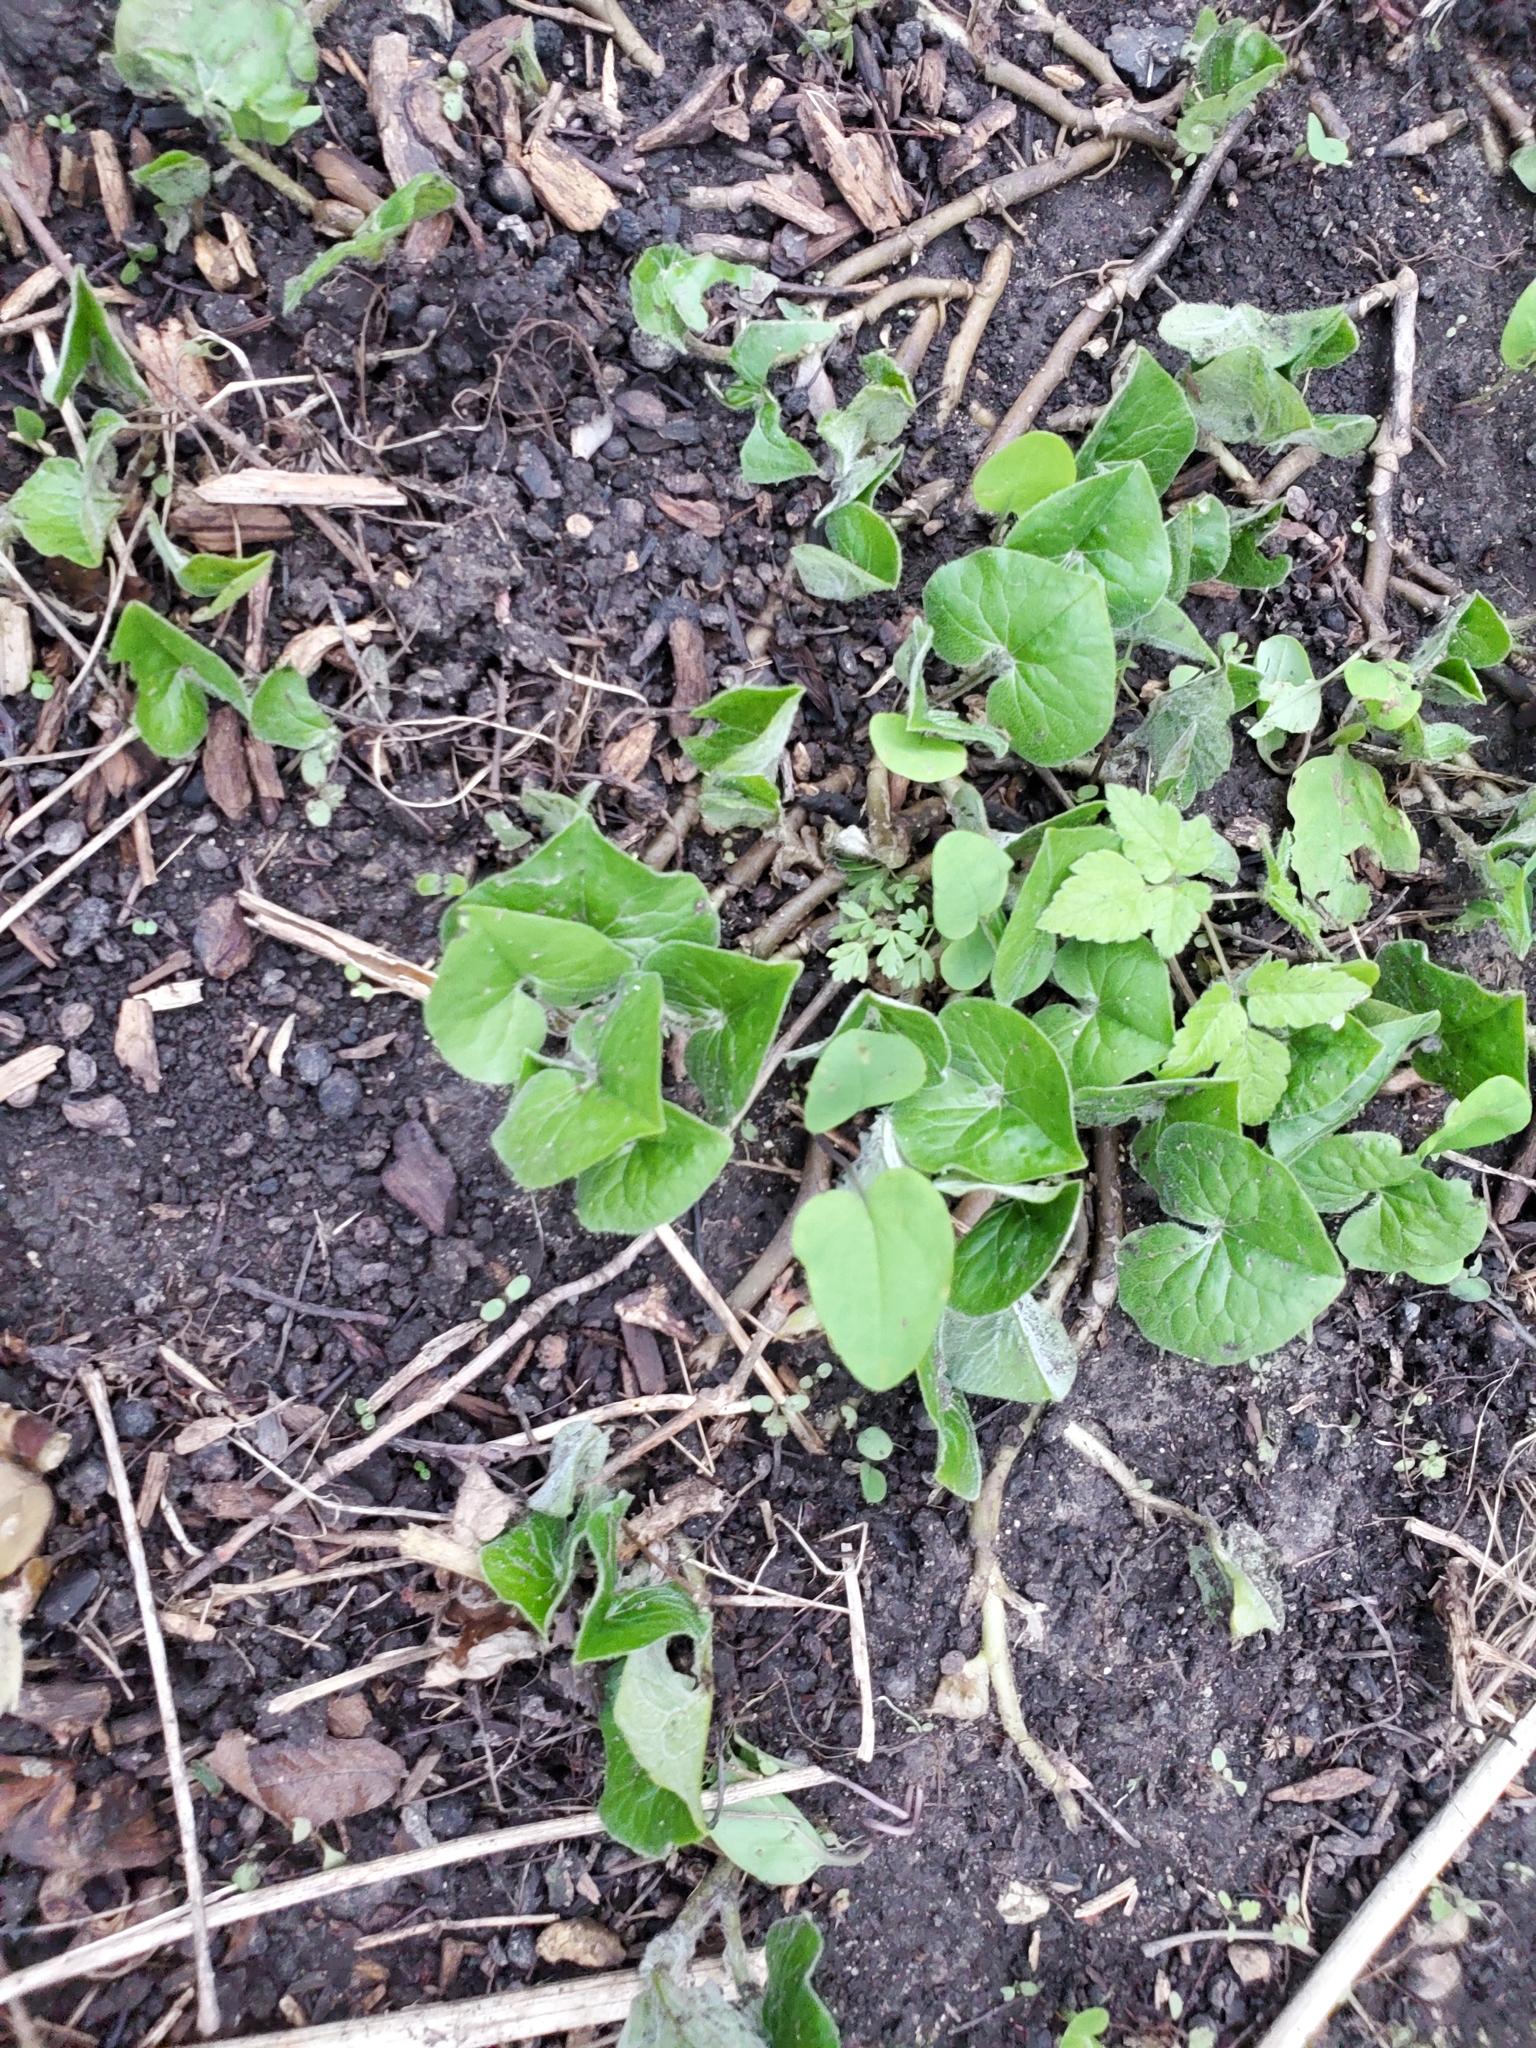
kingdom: Plantae
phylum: Tracheophyta
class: Magnoliopsida
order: Piperales
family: Aristolochiaceae
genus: Asarum
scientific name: Asarum canadense
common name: Wild ginger
